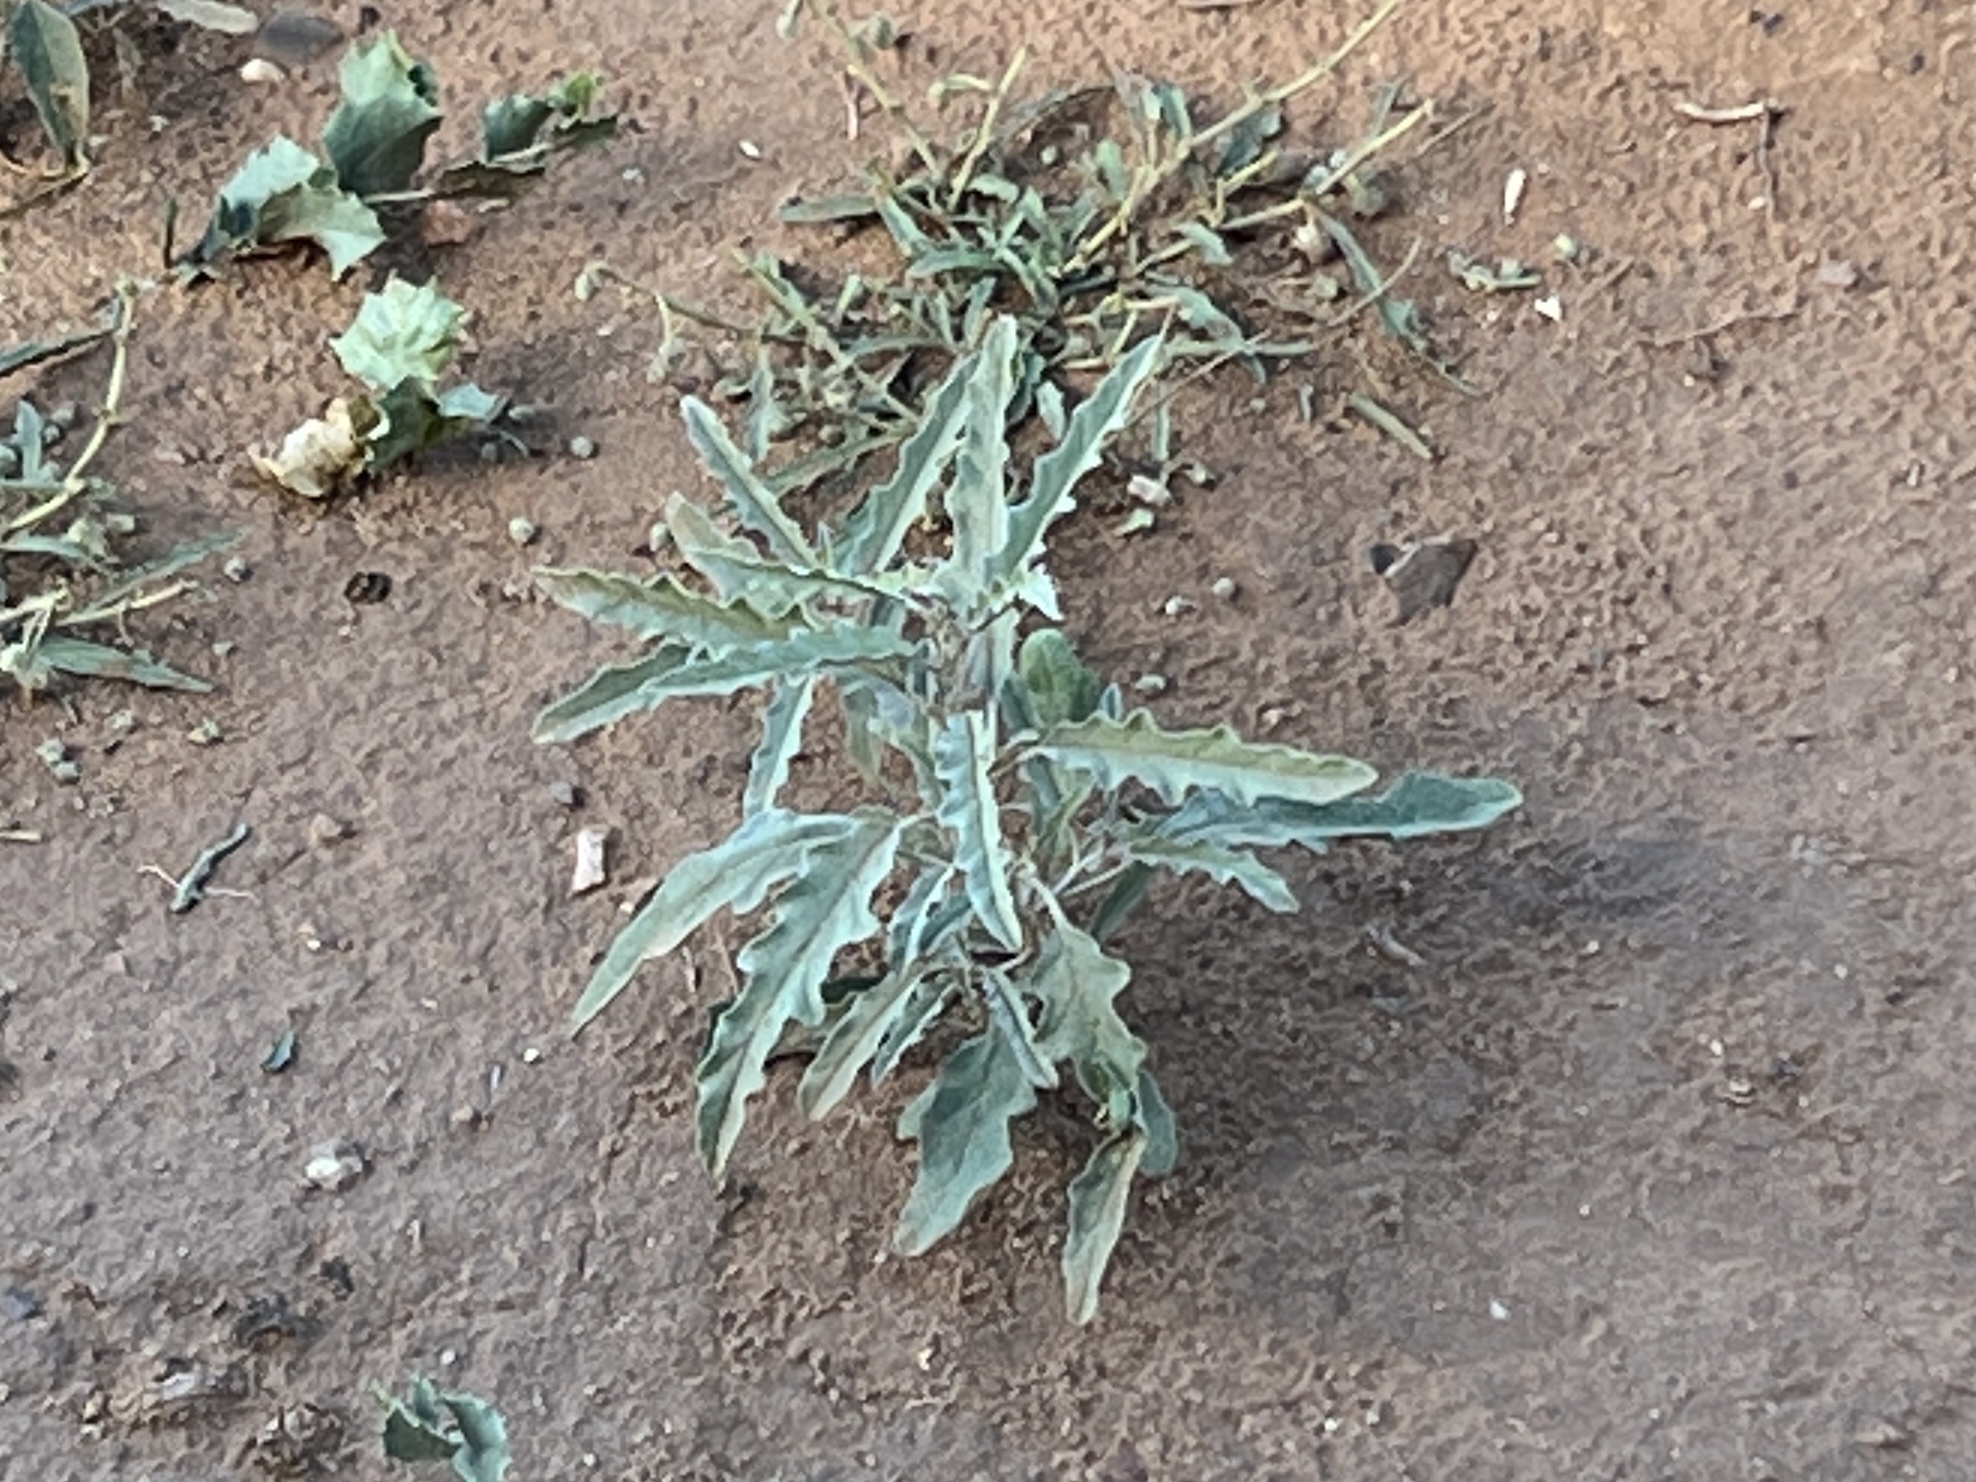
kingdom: Plantae
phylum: Tracheophyta
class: Magnoliopsida
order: Solanales
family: Solanaceae
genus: Solanum
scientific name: Solanum elaeagnifolium
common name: Silverleaf nightshade
